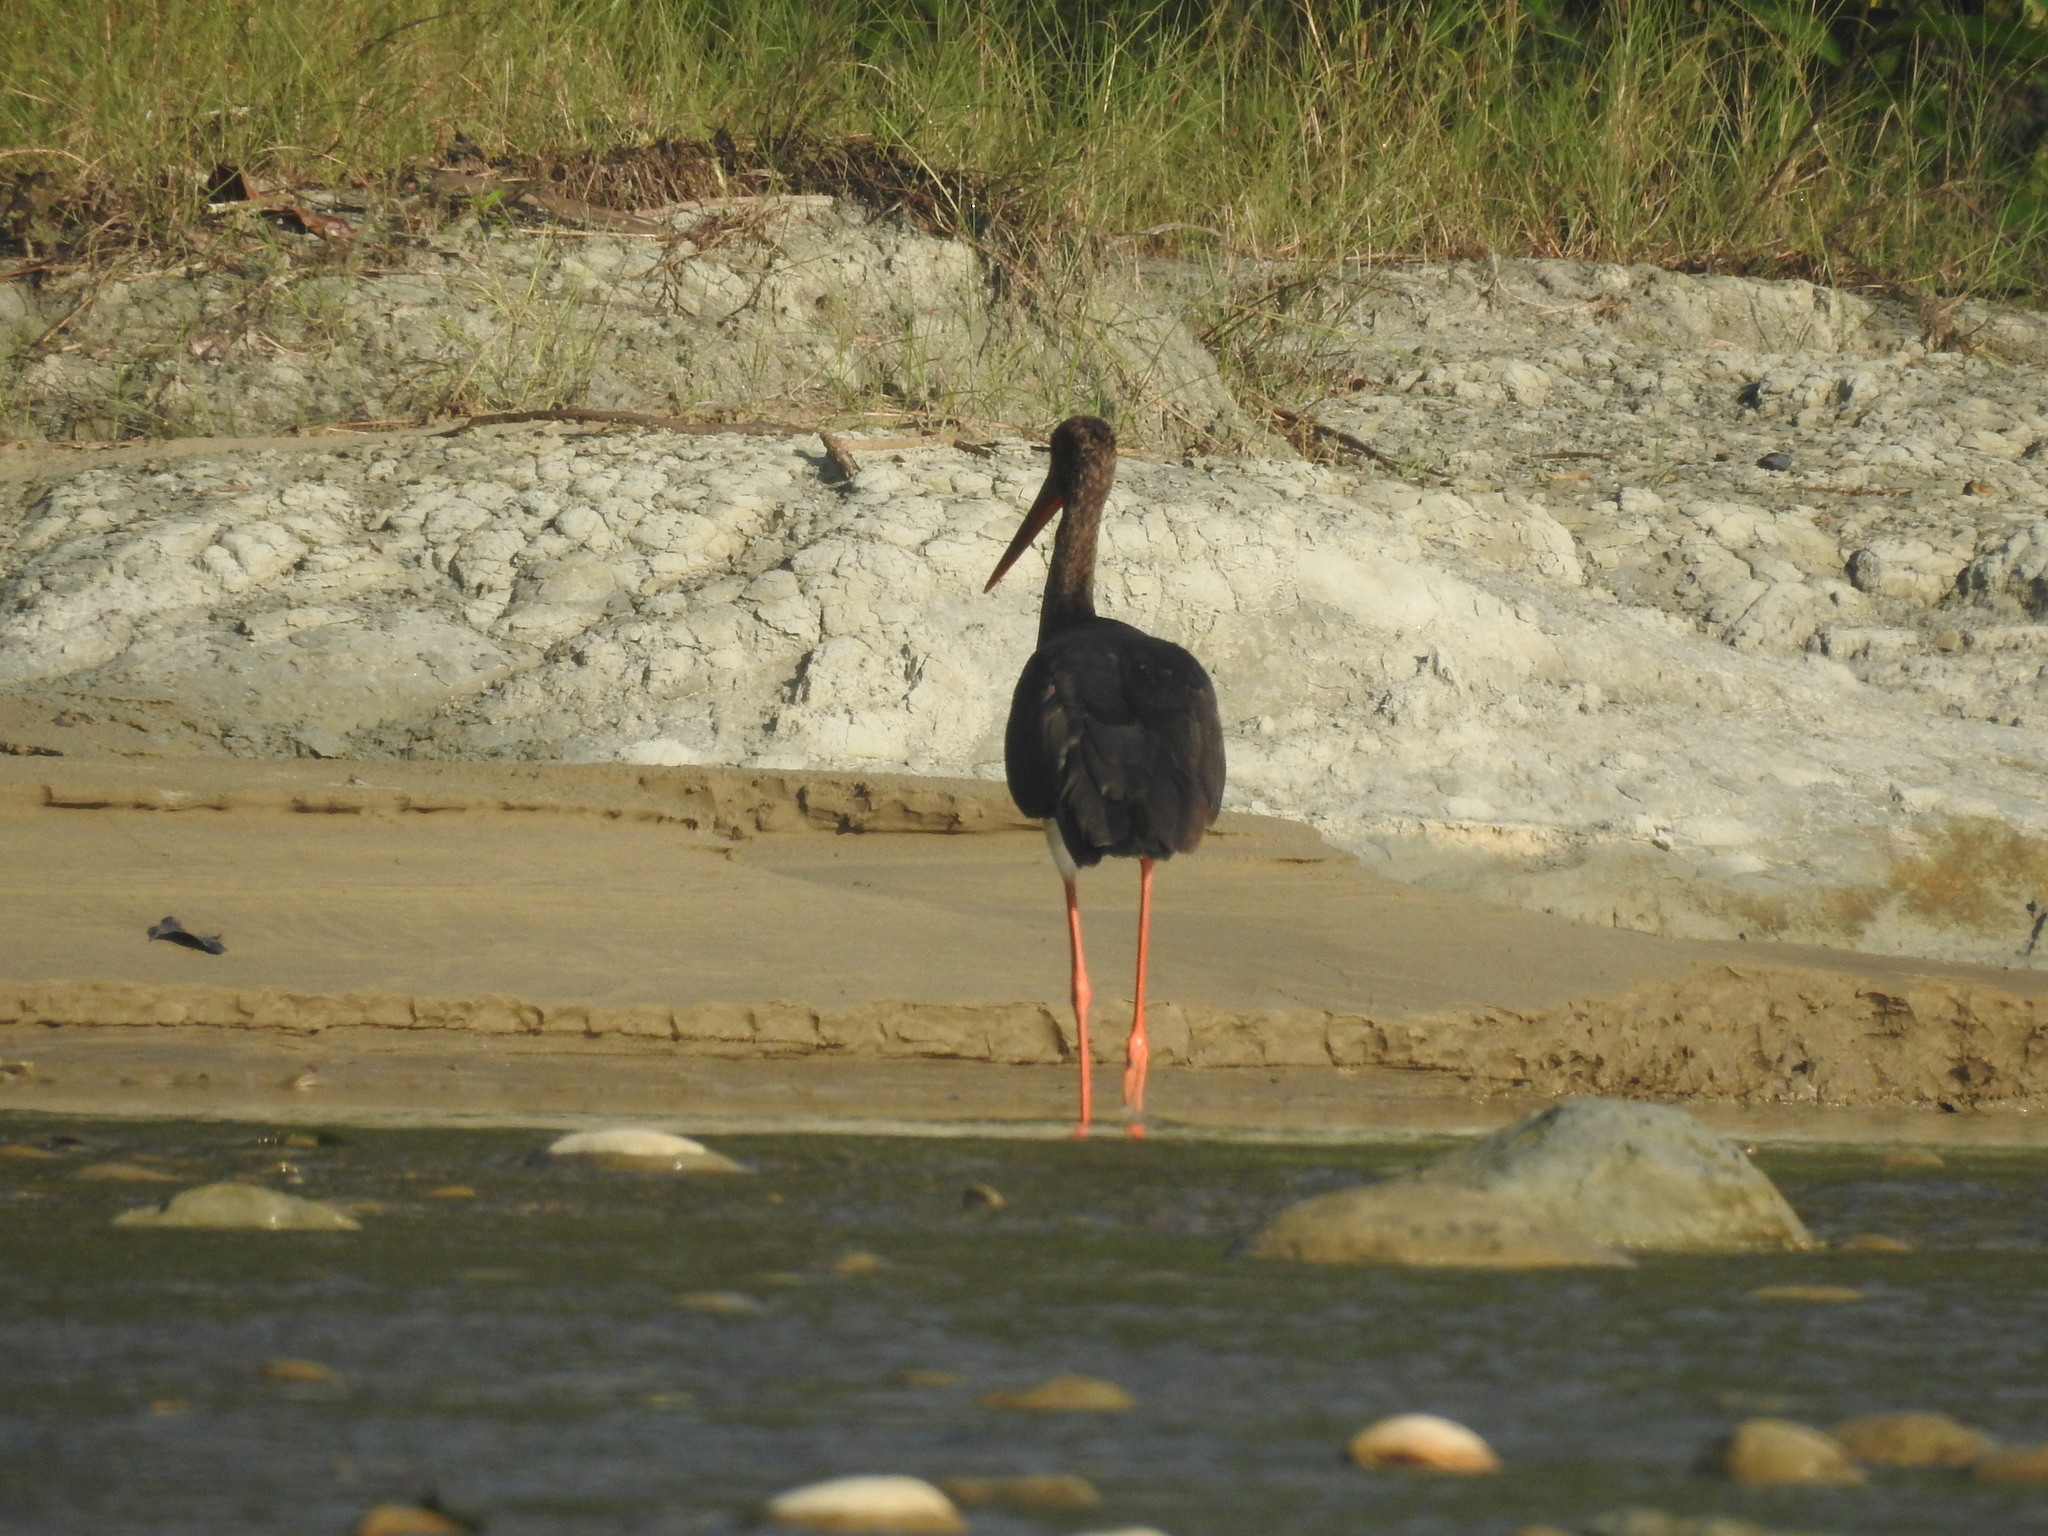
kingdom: Animalia
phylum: Chordata
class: Aves
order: Ciconiiformes
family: Ciconiidae
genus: Ciconia
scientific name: Ciconia nigra
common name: Black stork
